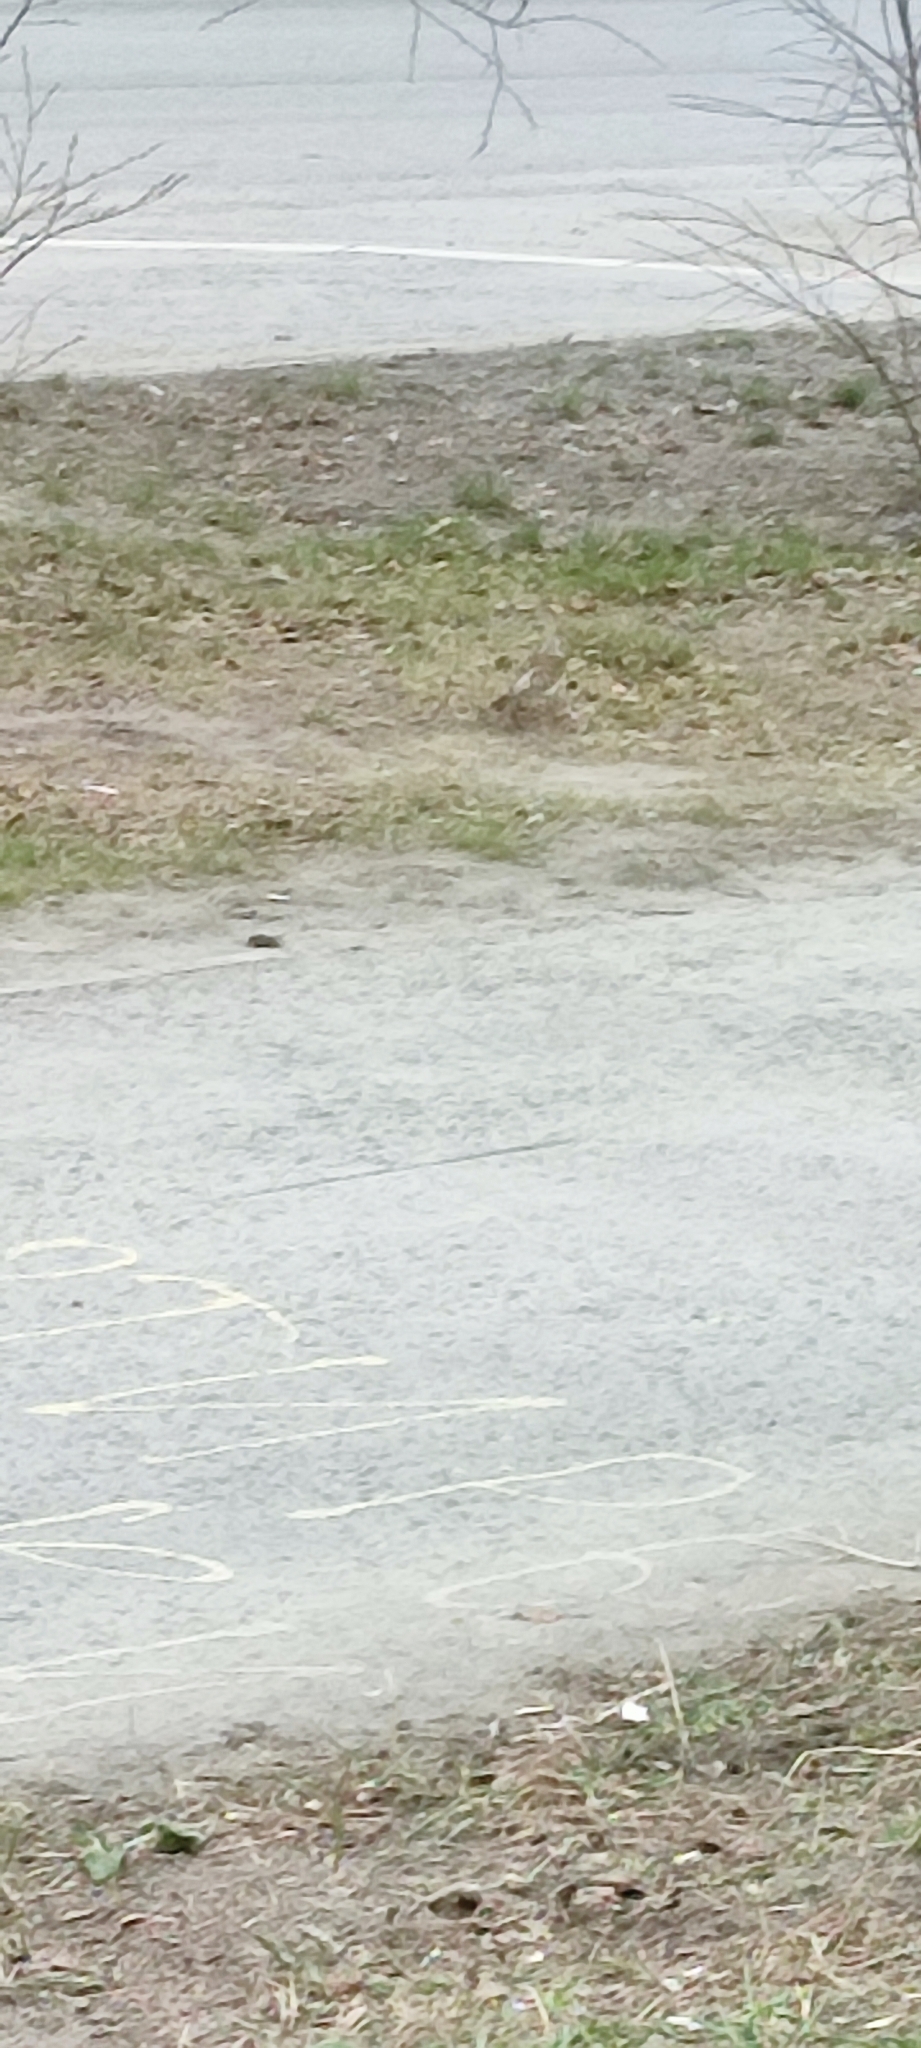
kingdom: Animalia
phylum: Chordata
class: Aves
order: Passeriformes
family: Turdidae
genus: Turdus
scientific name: Turdus pilaris
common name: Fieldfare
